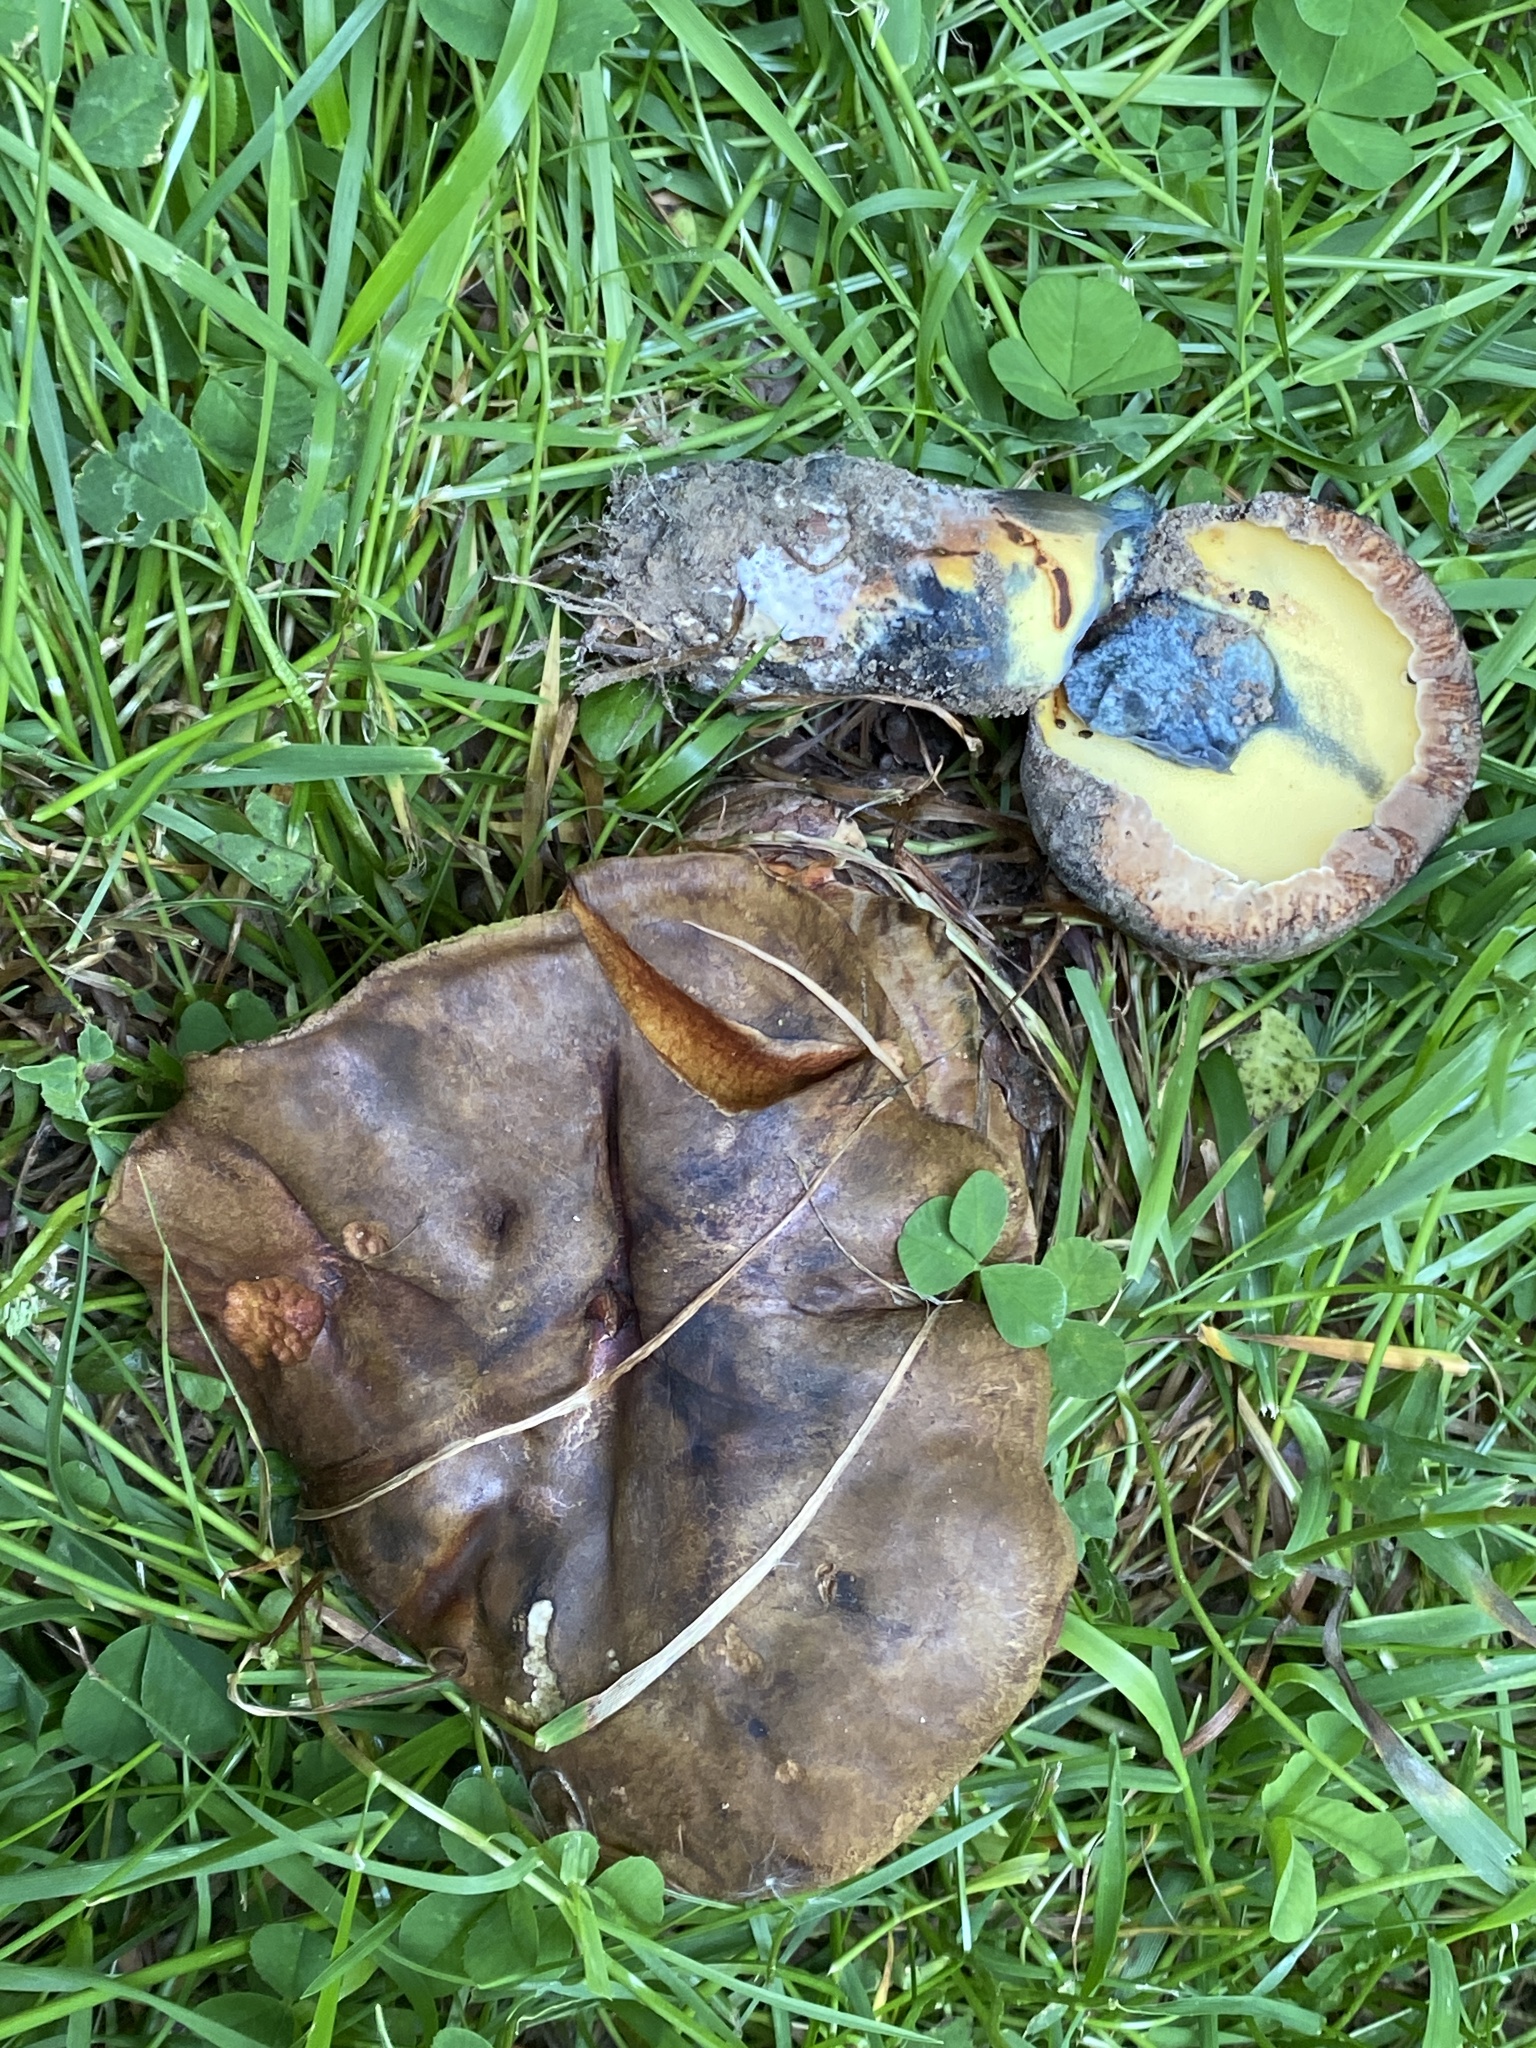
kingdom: Fungi
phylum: Basidiomycota
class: Agaricomycetes
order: Boletales
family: Boletaceae
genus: Cyanoboletus
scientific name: Cyanoboletus pulverulentus
